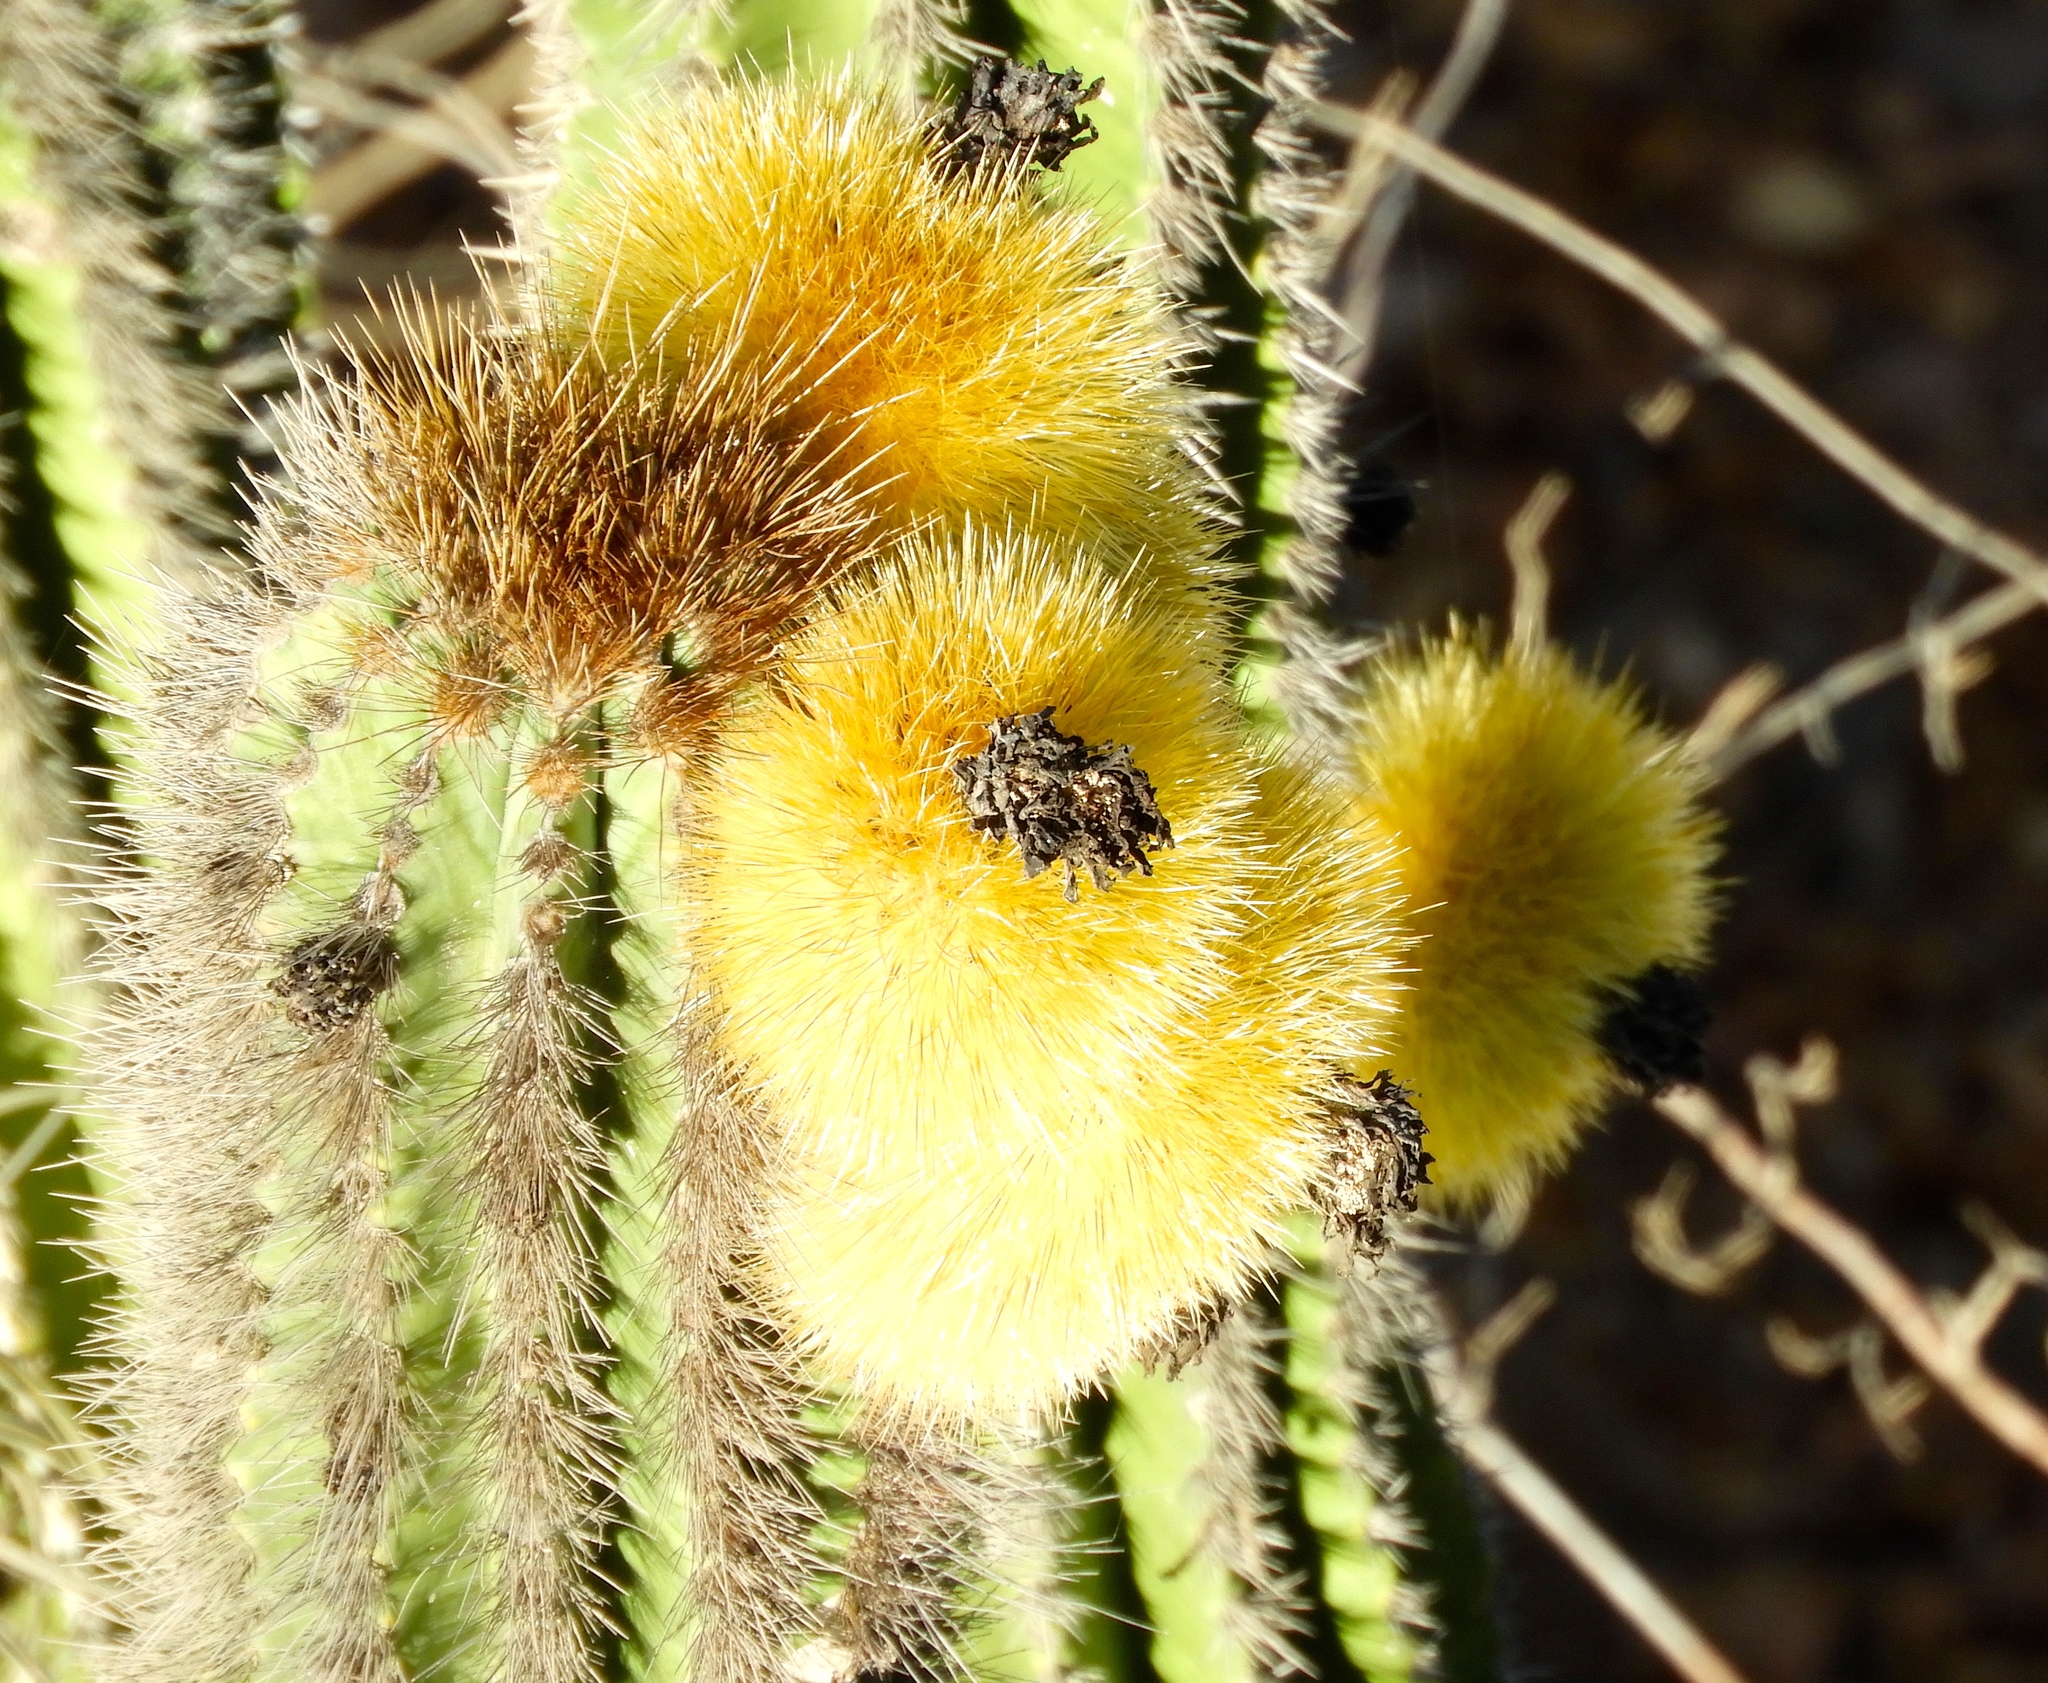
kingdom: Plantae
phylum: Tracheophyta
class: Magnoliopsida
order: Caryophyllales
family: Cactaceae
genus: Pachycereus
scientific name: Pachycereus pecten-aboriginum
